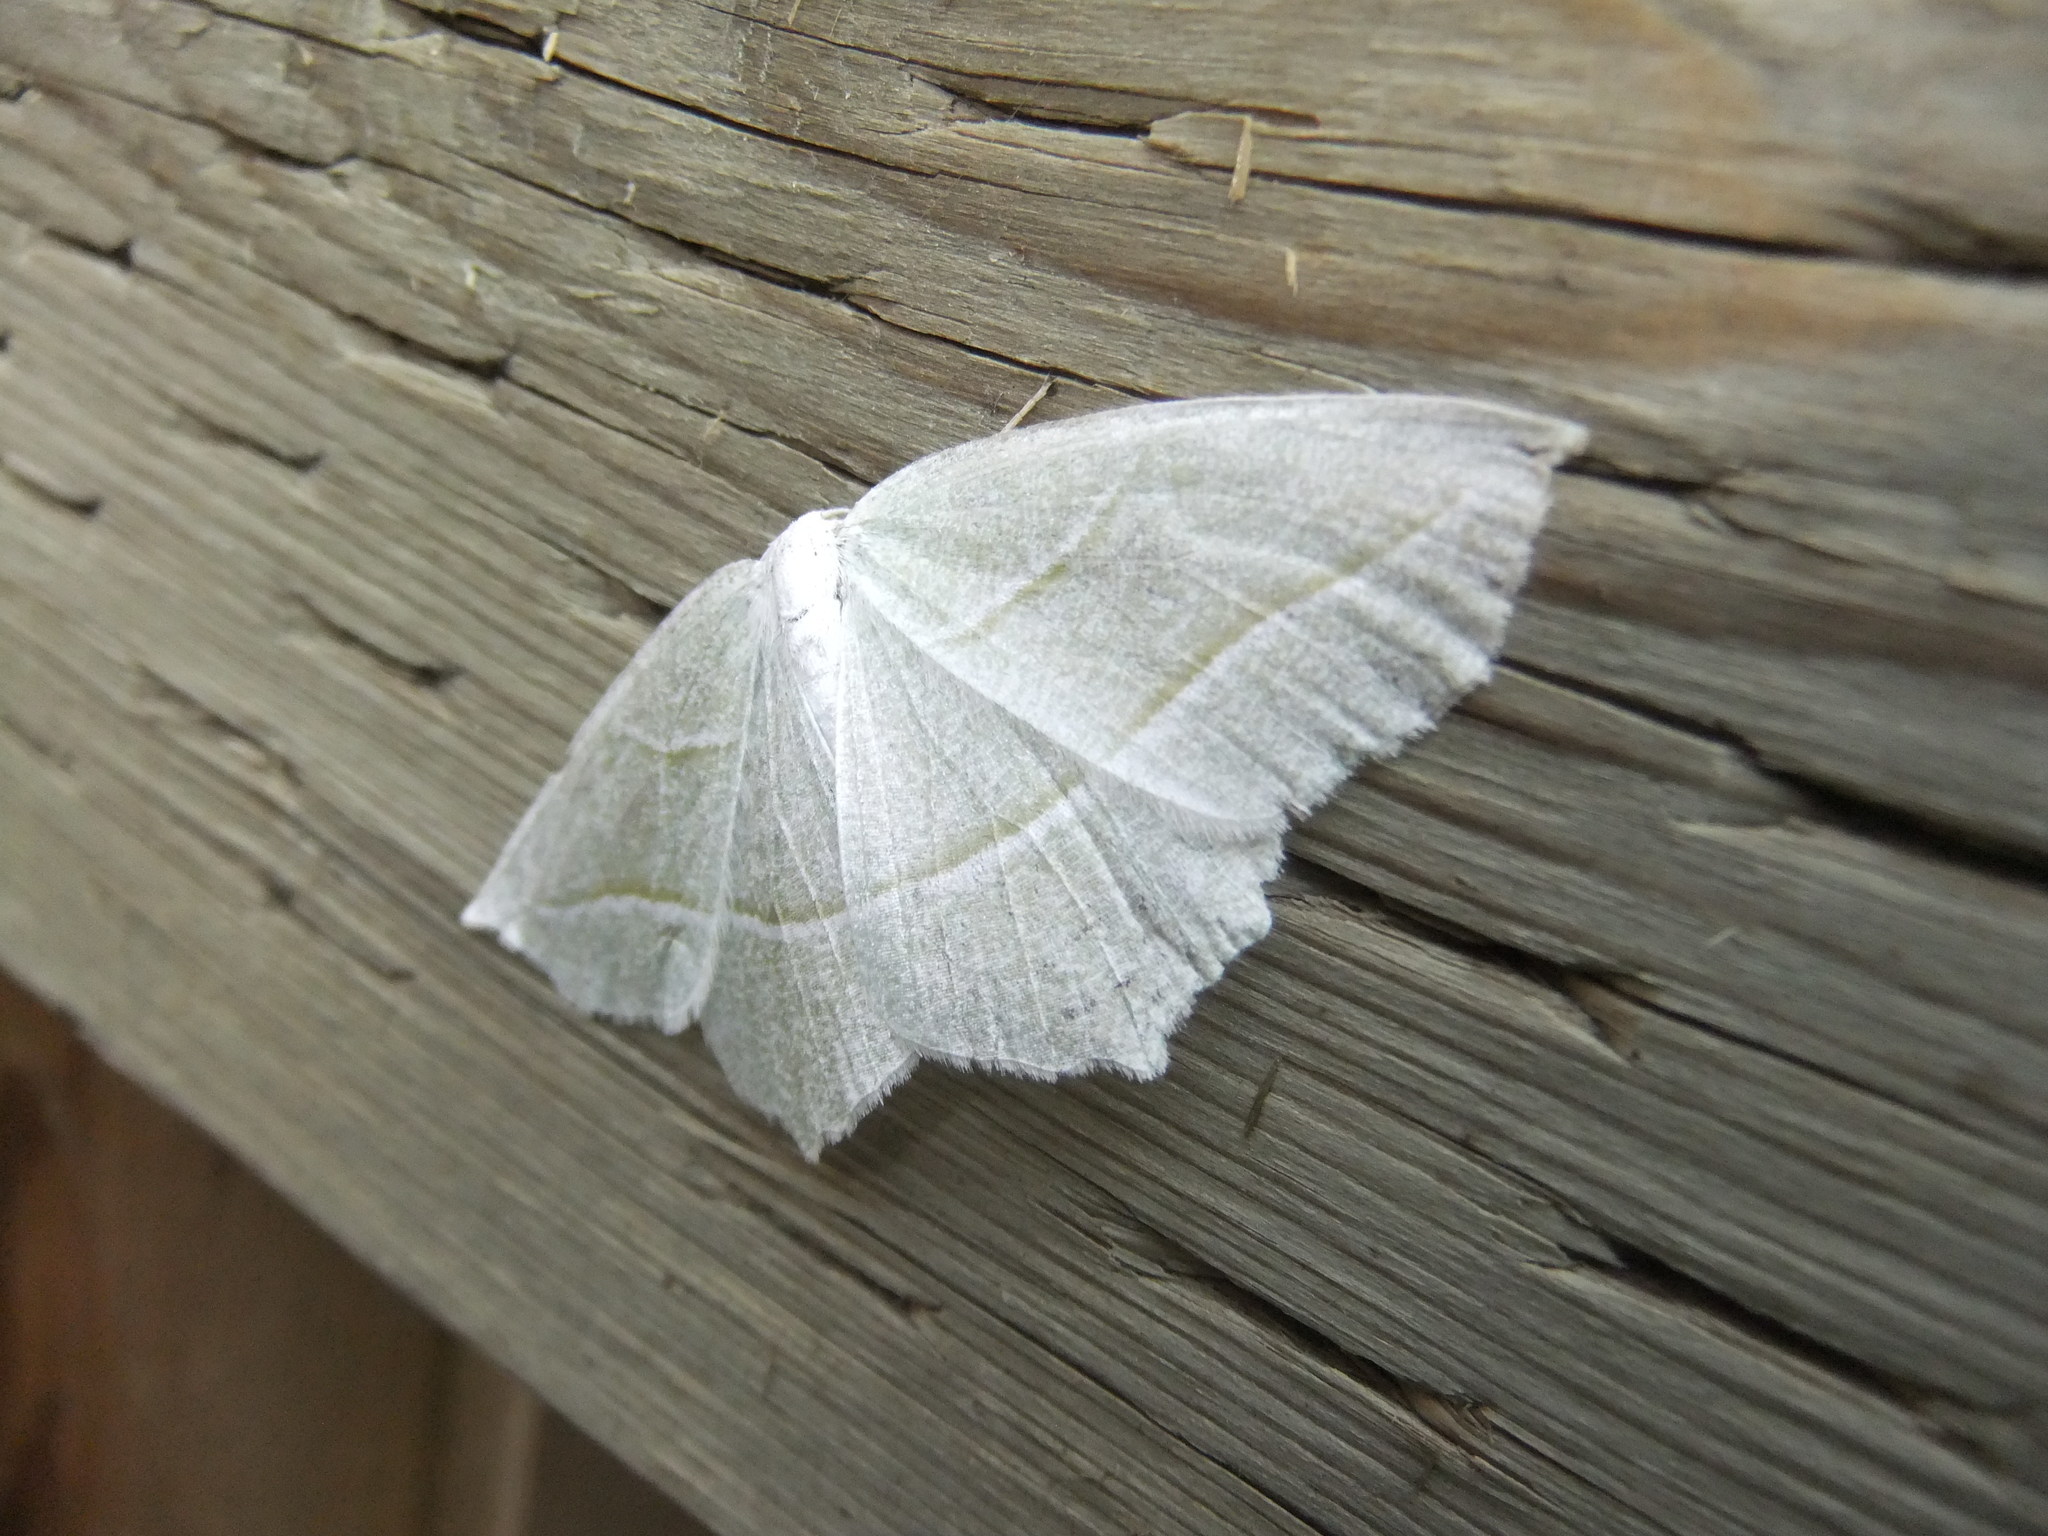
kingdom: Animalia
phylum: Arthropoda
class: Insecta
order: Lepidoptera
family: Geometridae
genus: Campaea
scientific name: Campaea perlata
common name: Fringed looper
